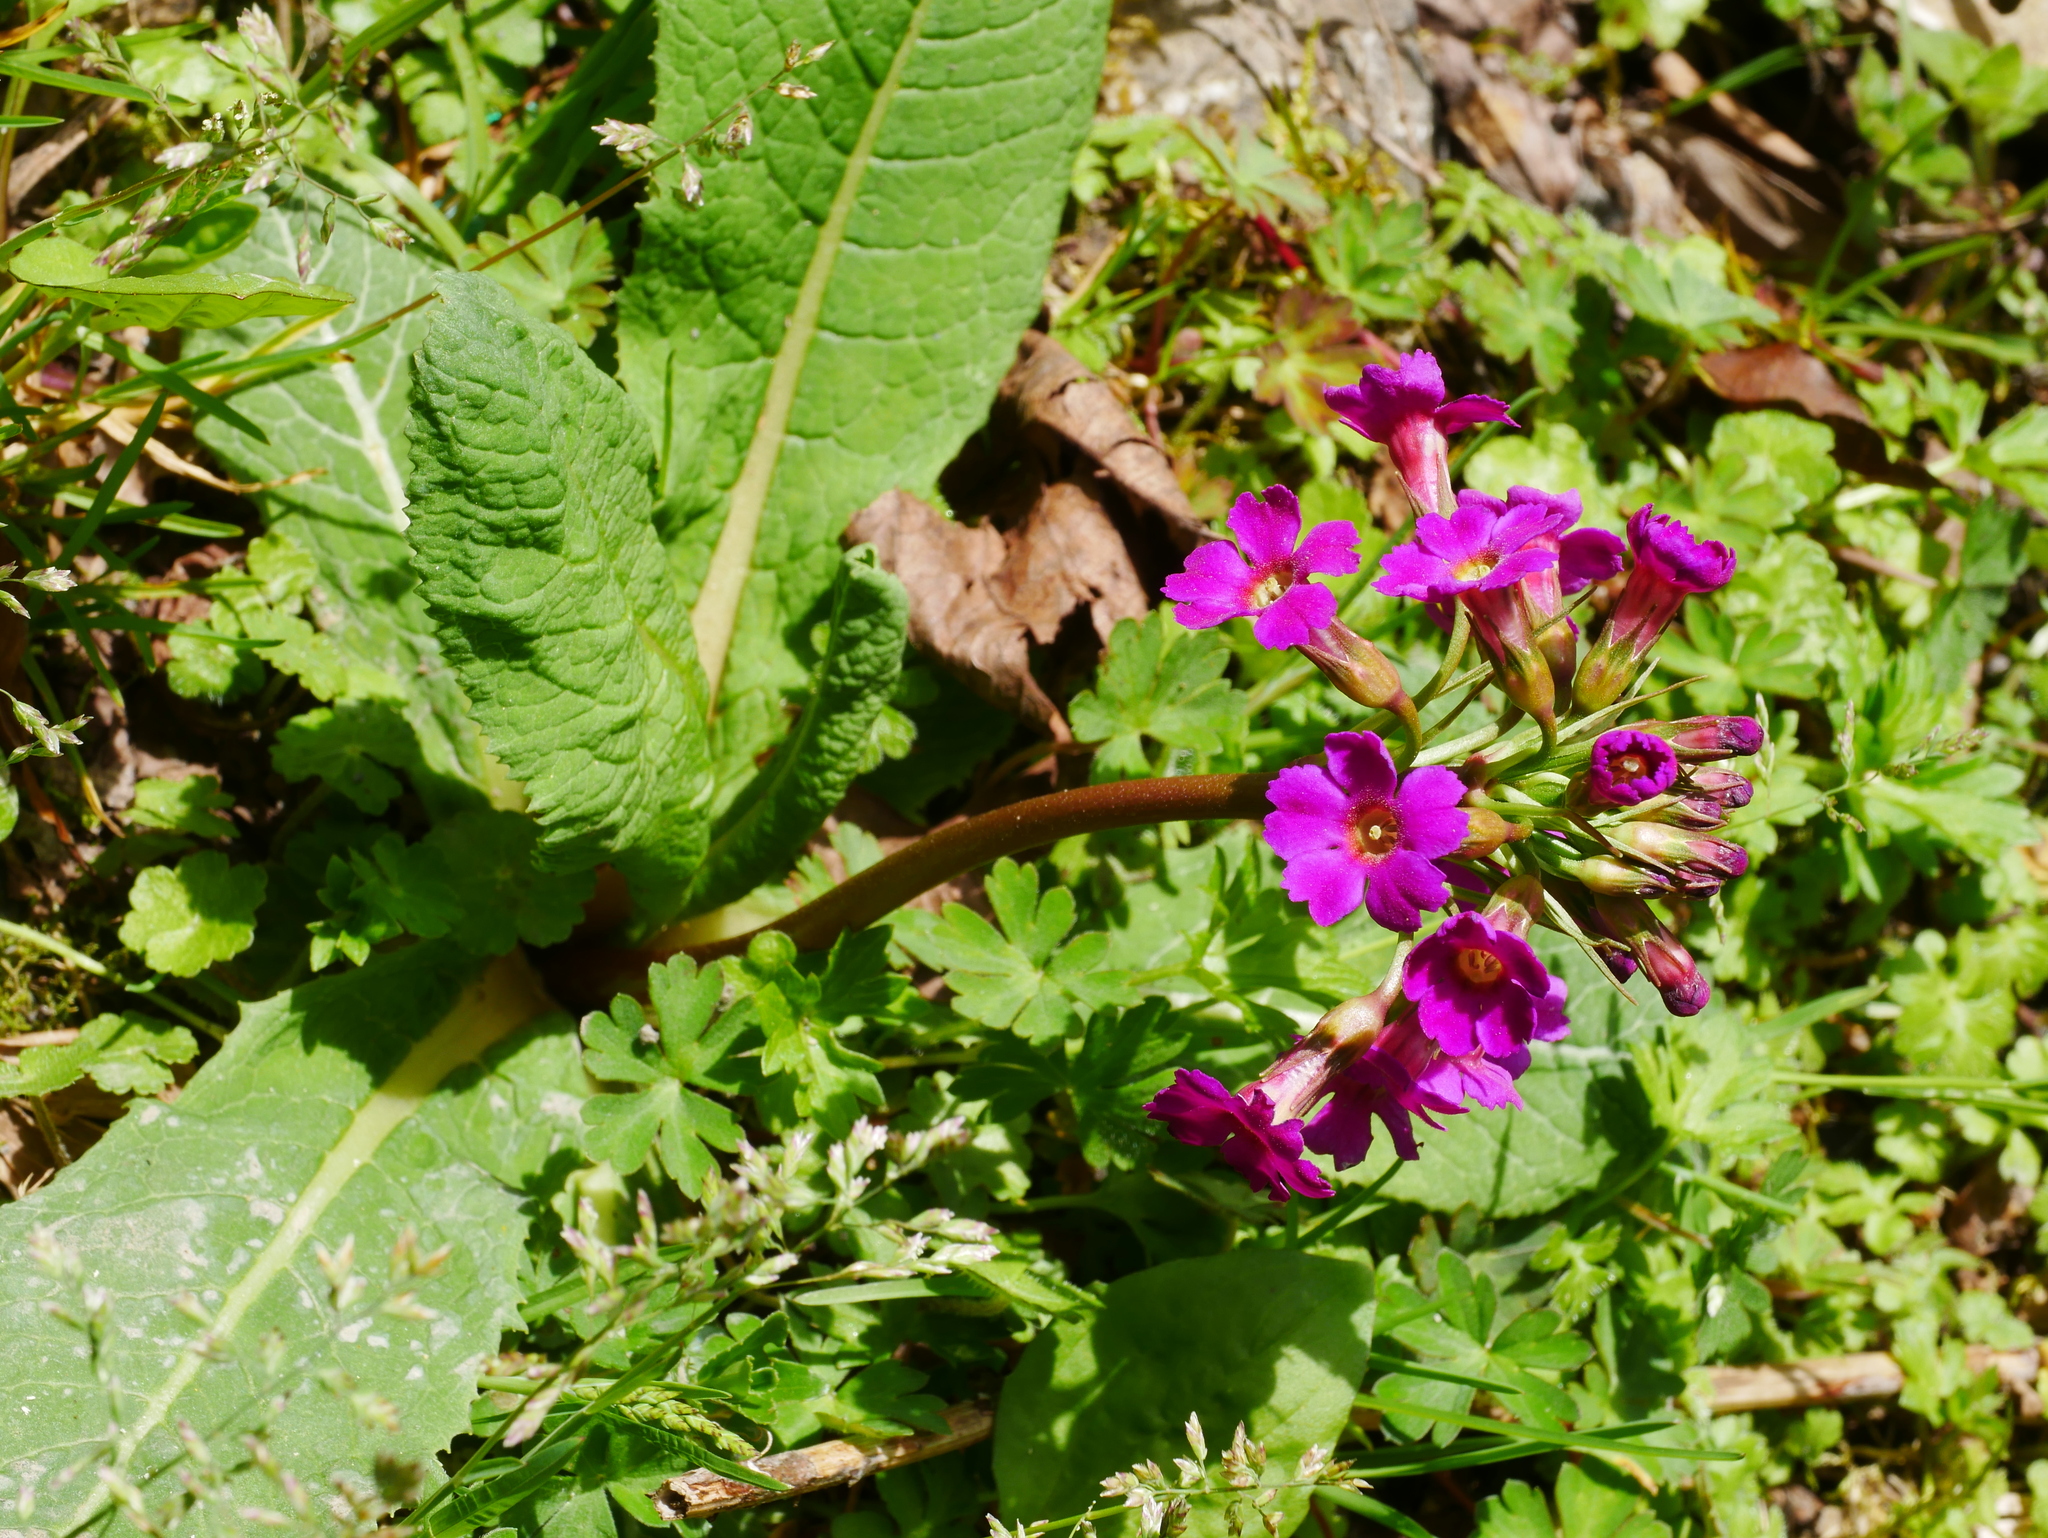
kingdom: Plantae
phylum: Tracheophyta
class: Magnoliopsida
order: Ericales
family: Primulaceae
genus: Primula
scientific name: Primula miyabeana
